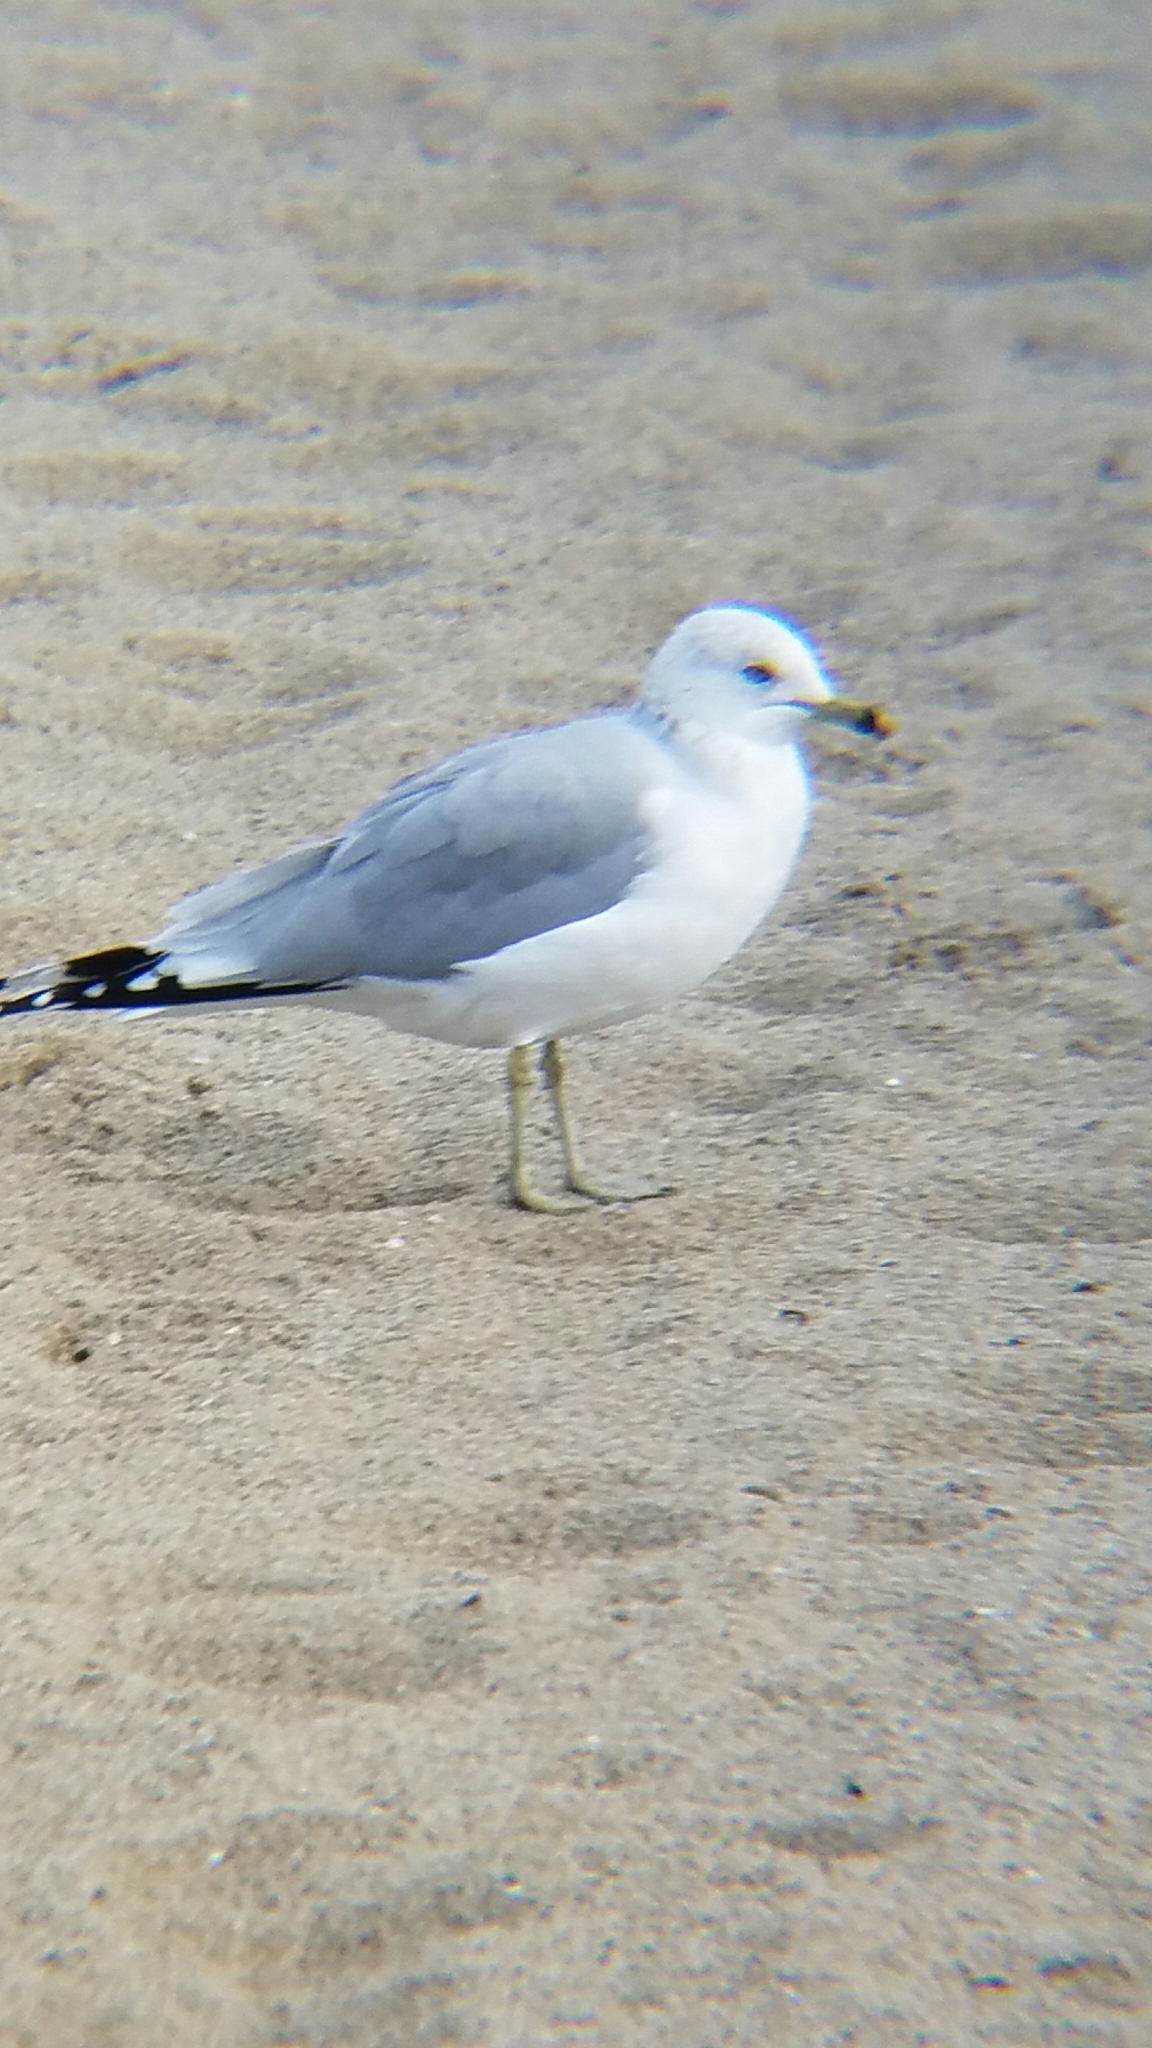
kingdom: Animalia
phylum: Chordata
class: Aves
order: Charadriiformes
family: Laridae
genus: Larus
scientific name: Larus delawarensis
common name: Ring-billed gull
